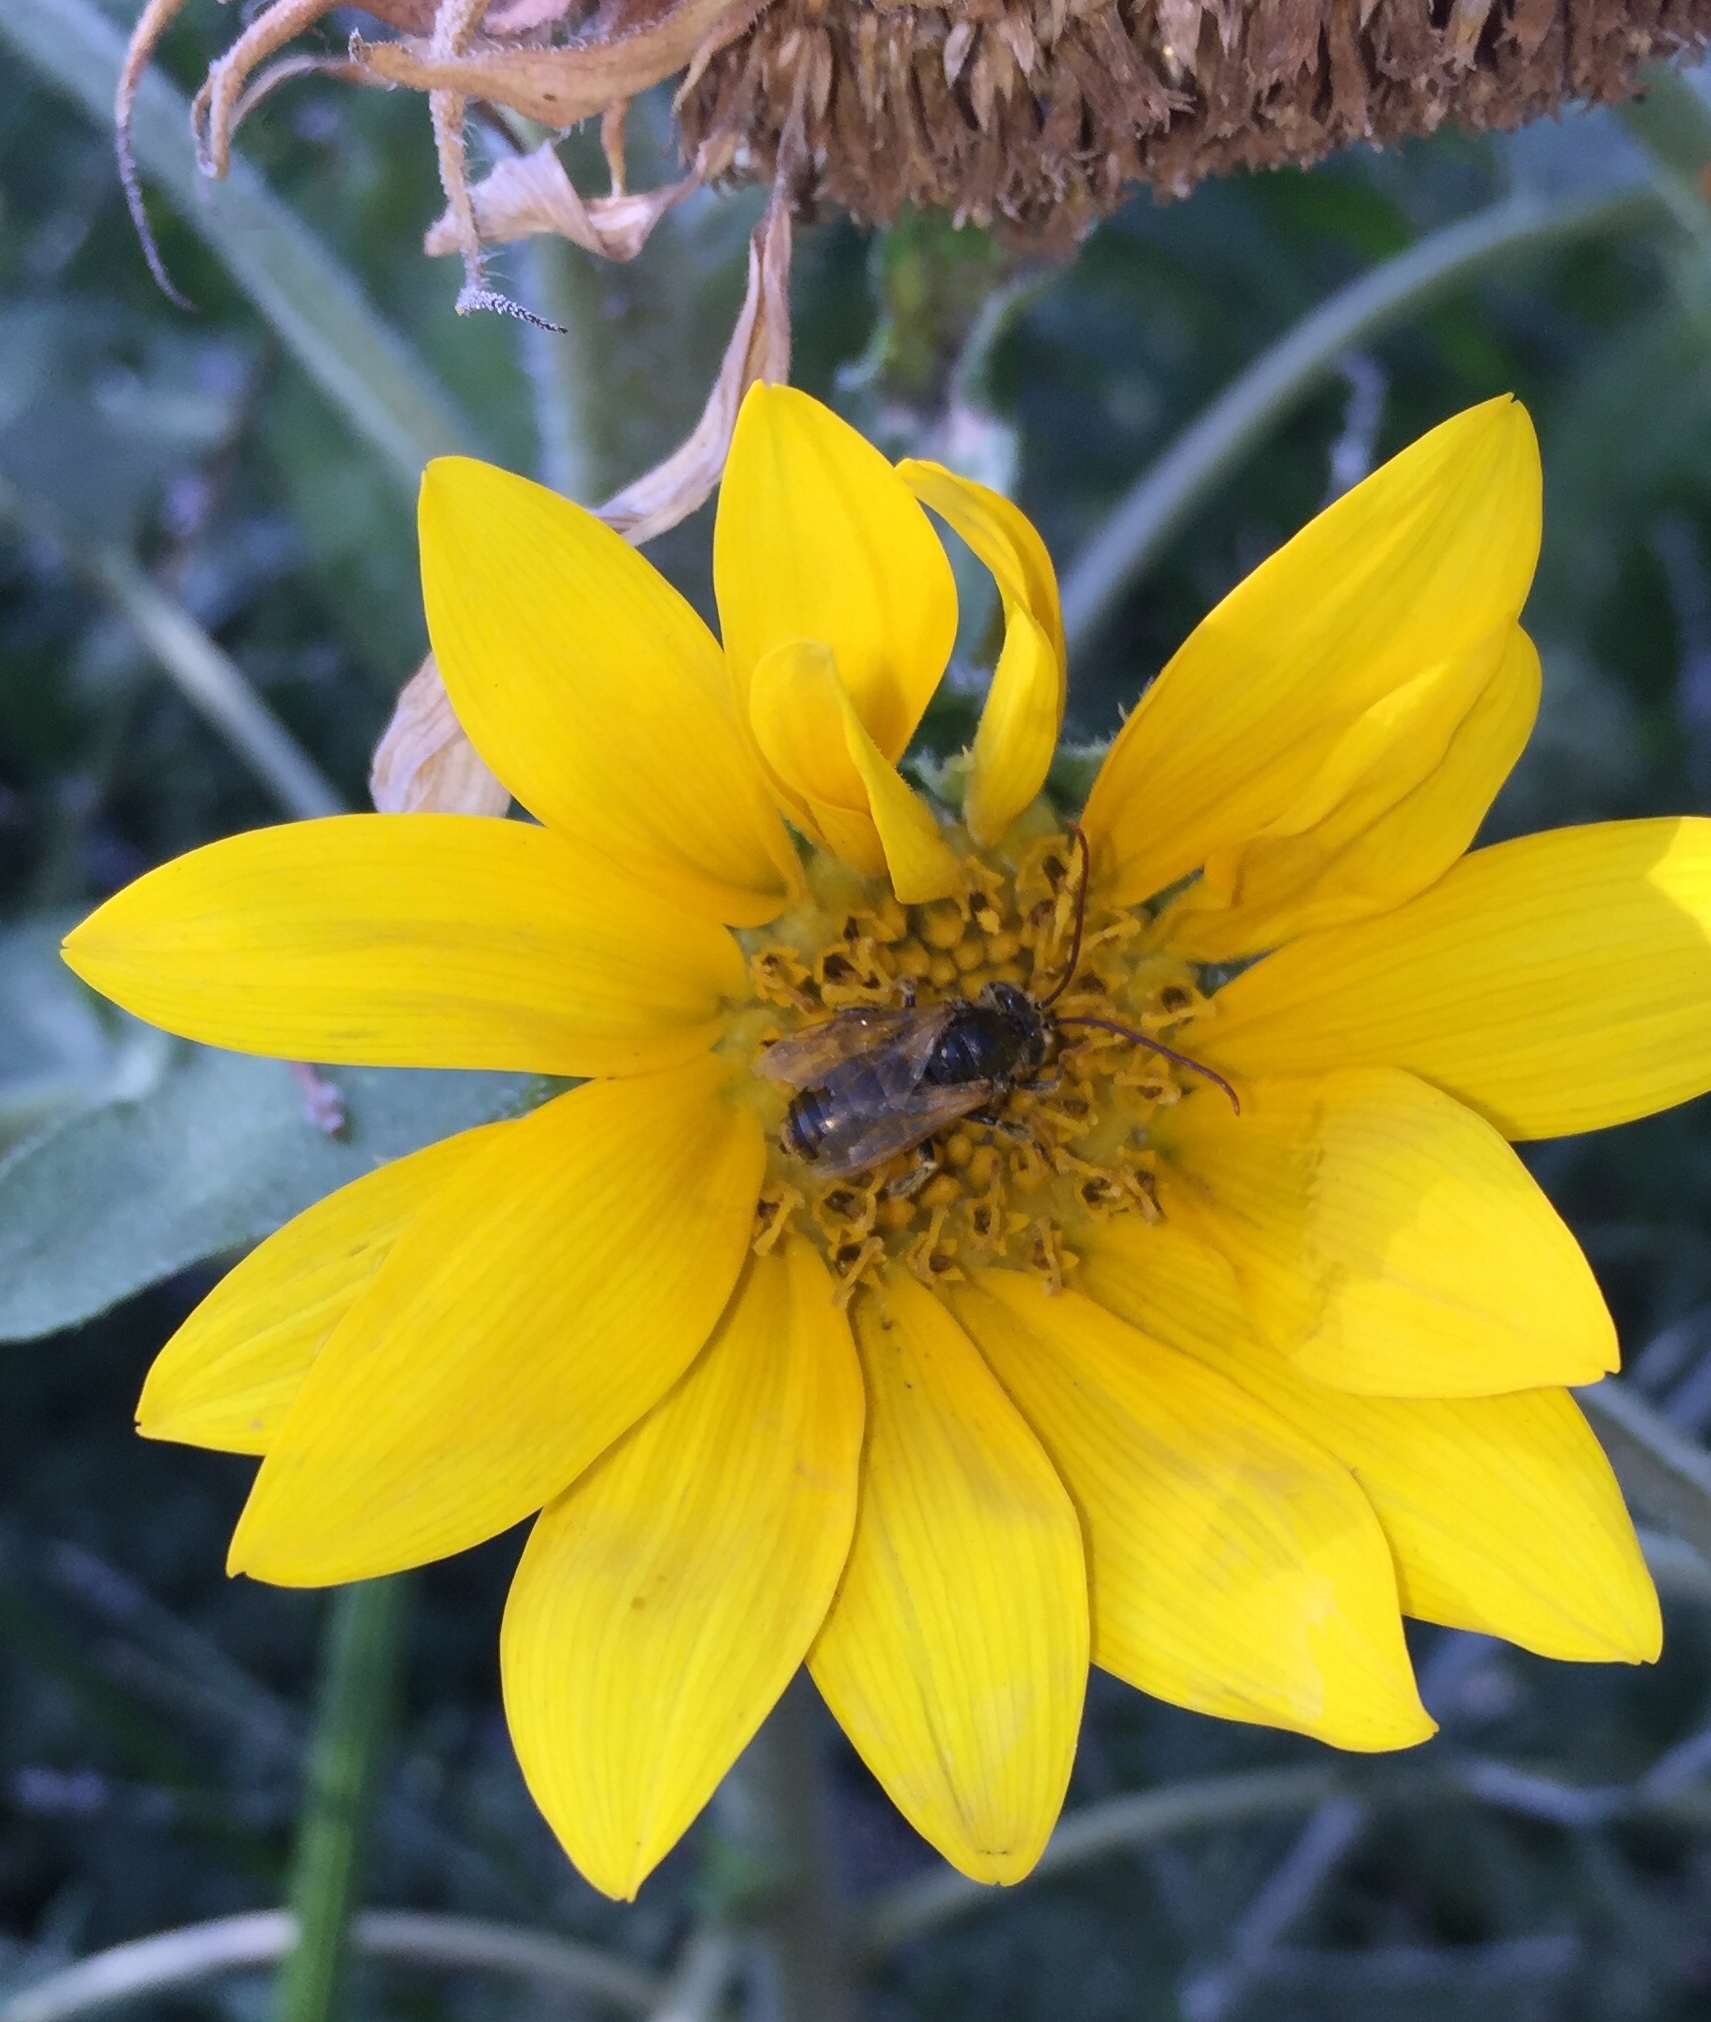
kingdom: Animalia
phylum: Arthropoda
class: Insecta
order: Hymenoptera
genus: Eumelissodes
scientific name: Eumelissodes
